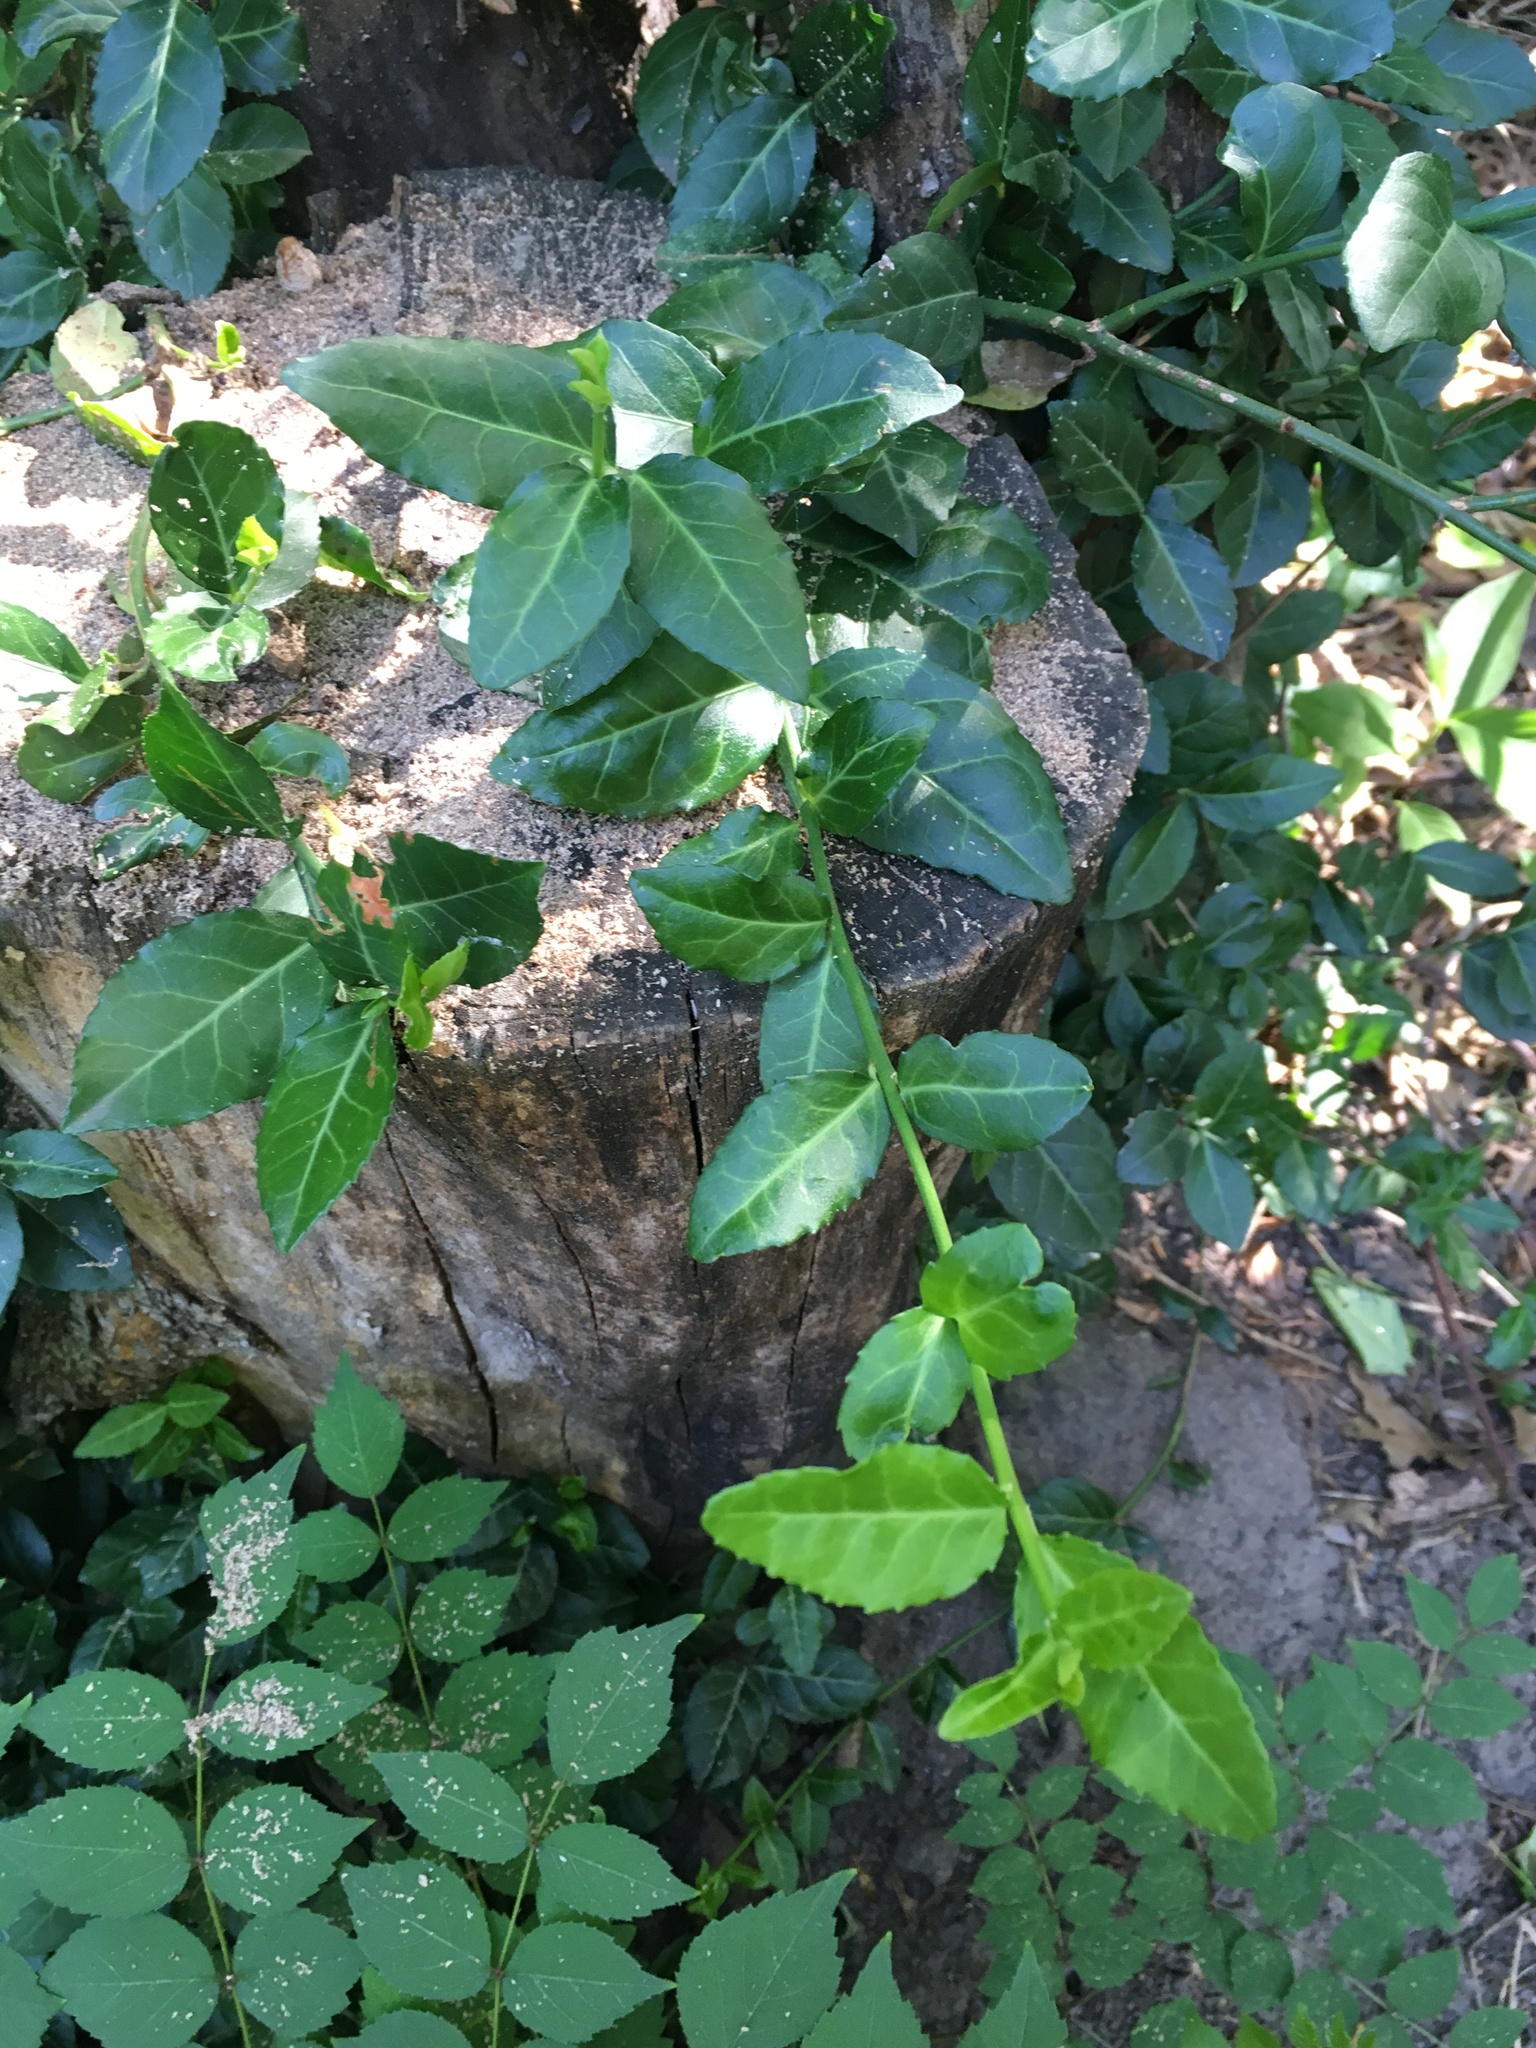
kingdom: Plantae
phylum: Tracheophyta
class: Magnoliopsida
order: Celastrales
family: Celastraceae
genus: Euonymus
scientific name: Euonymus fortunei
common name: Climbing euonymus
